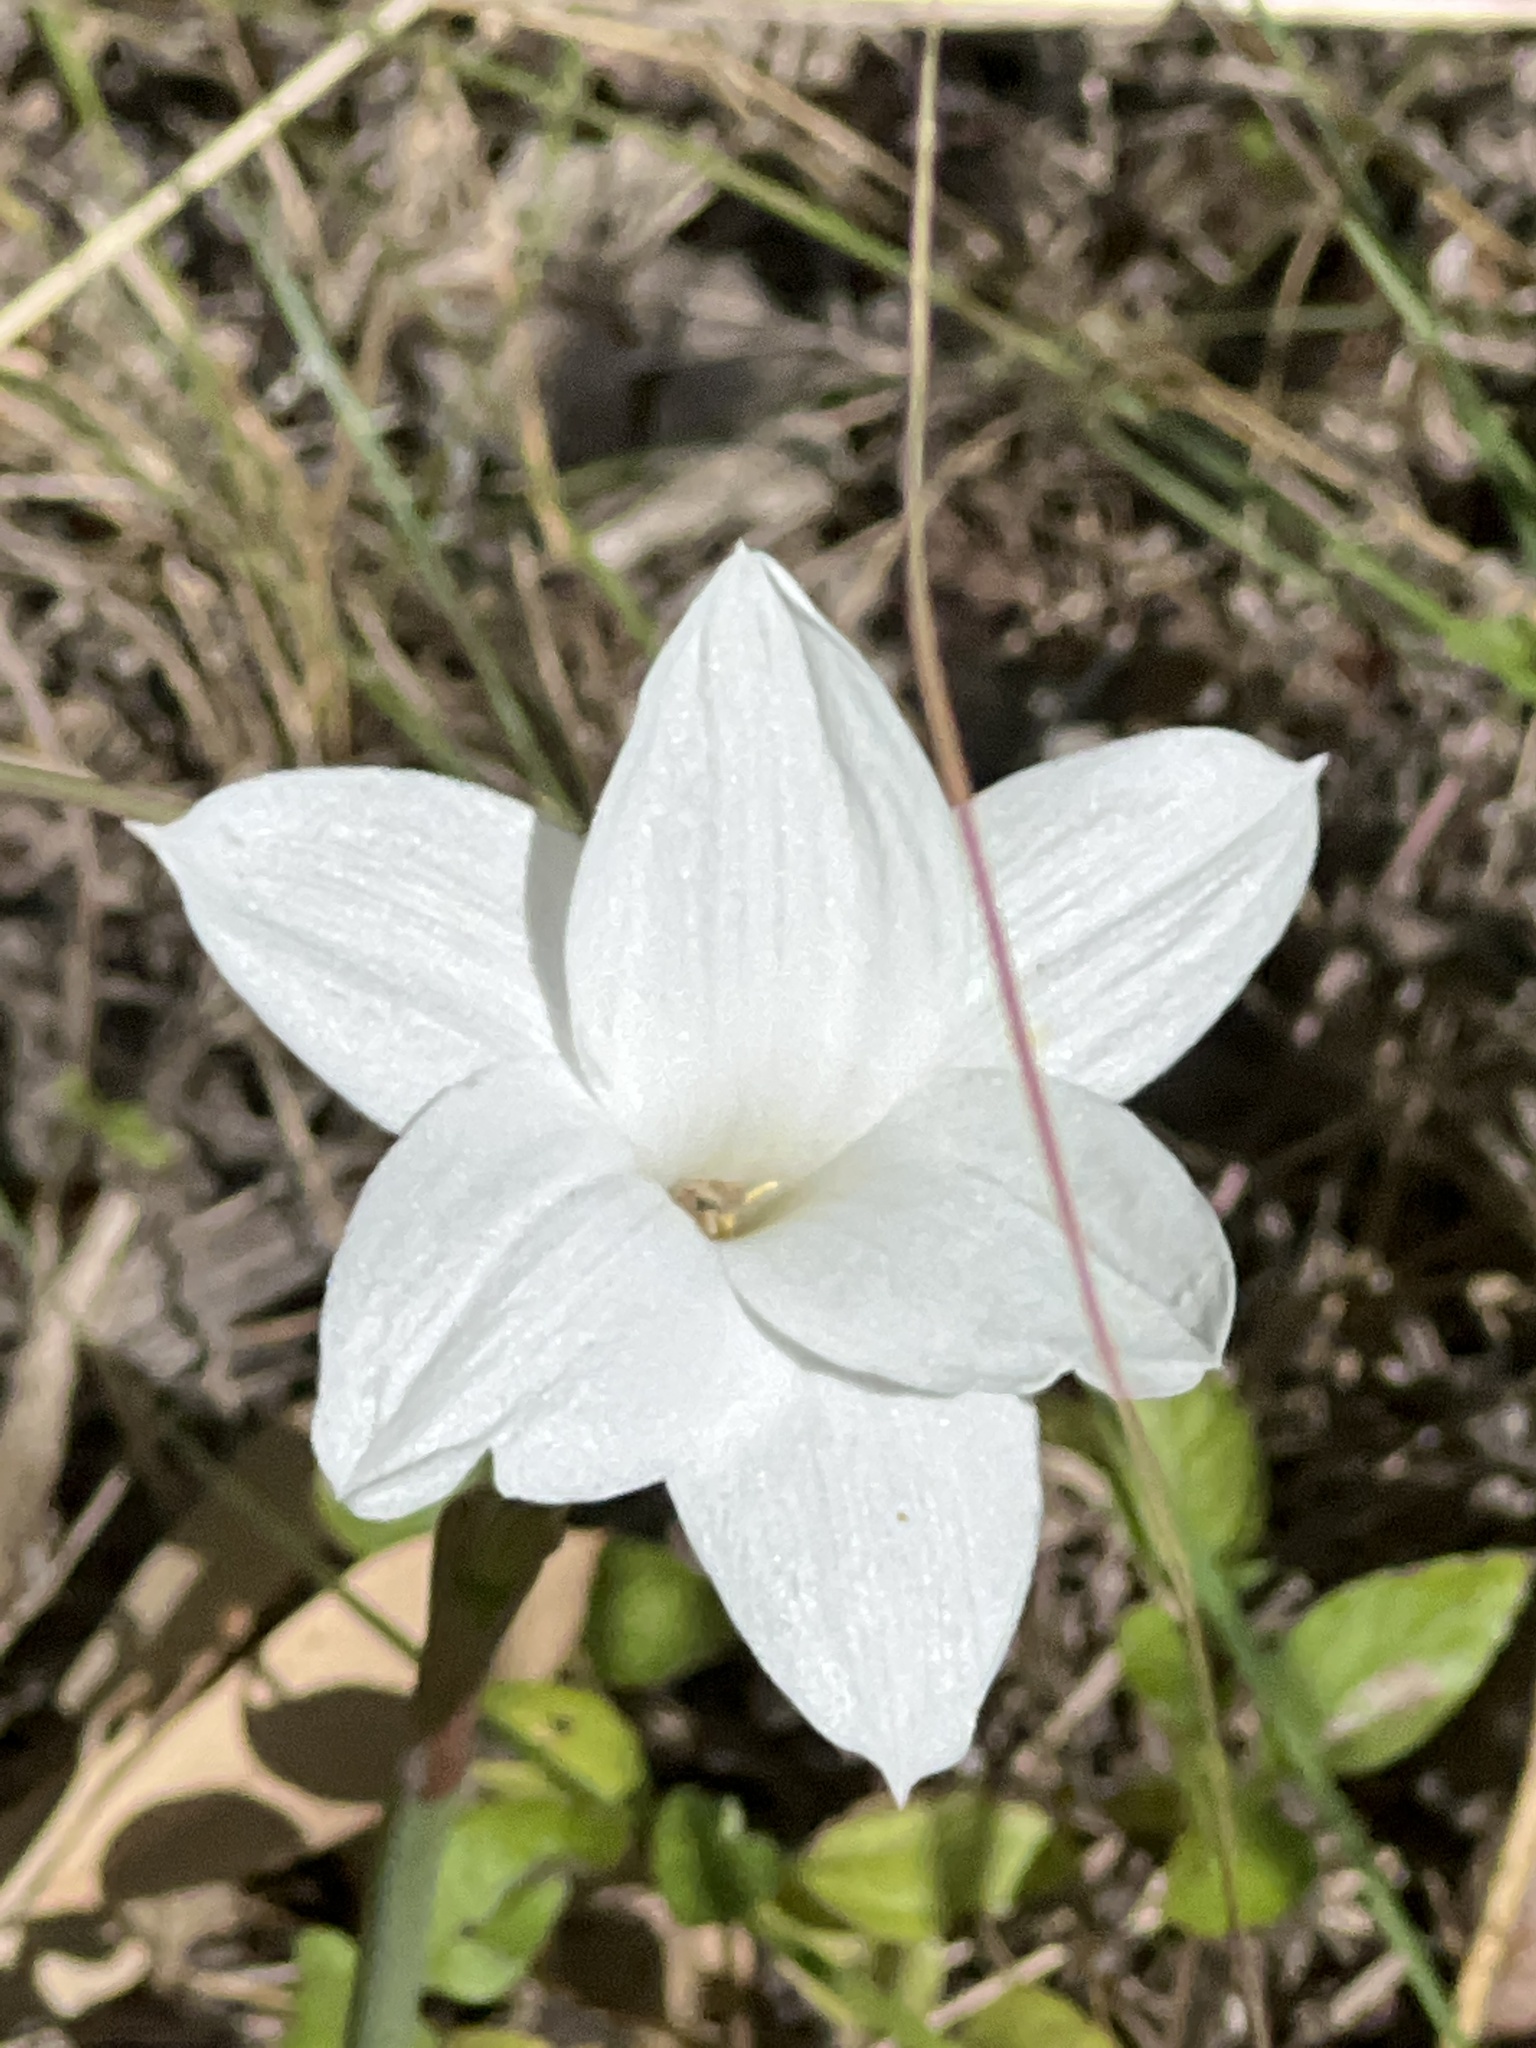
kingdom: Plantae
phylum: Tracheophyta
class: Liliopsida
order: Asparagales
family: Amaryllidaceae
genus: Zephyranthes
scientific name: Zephyranthes drummondii
